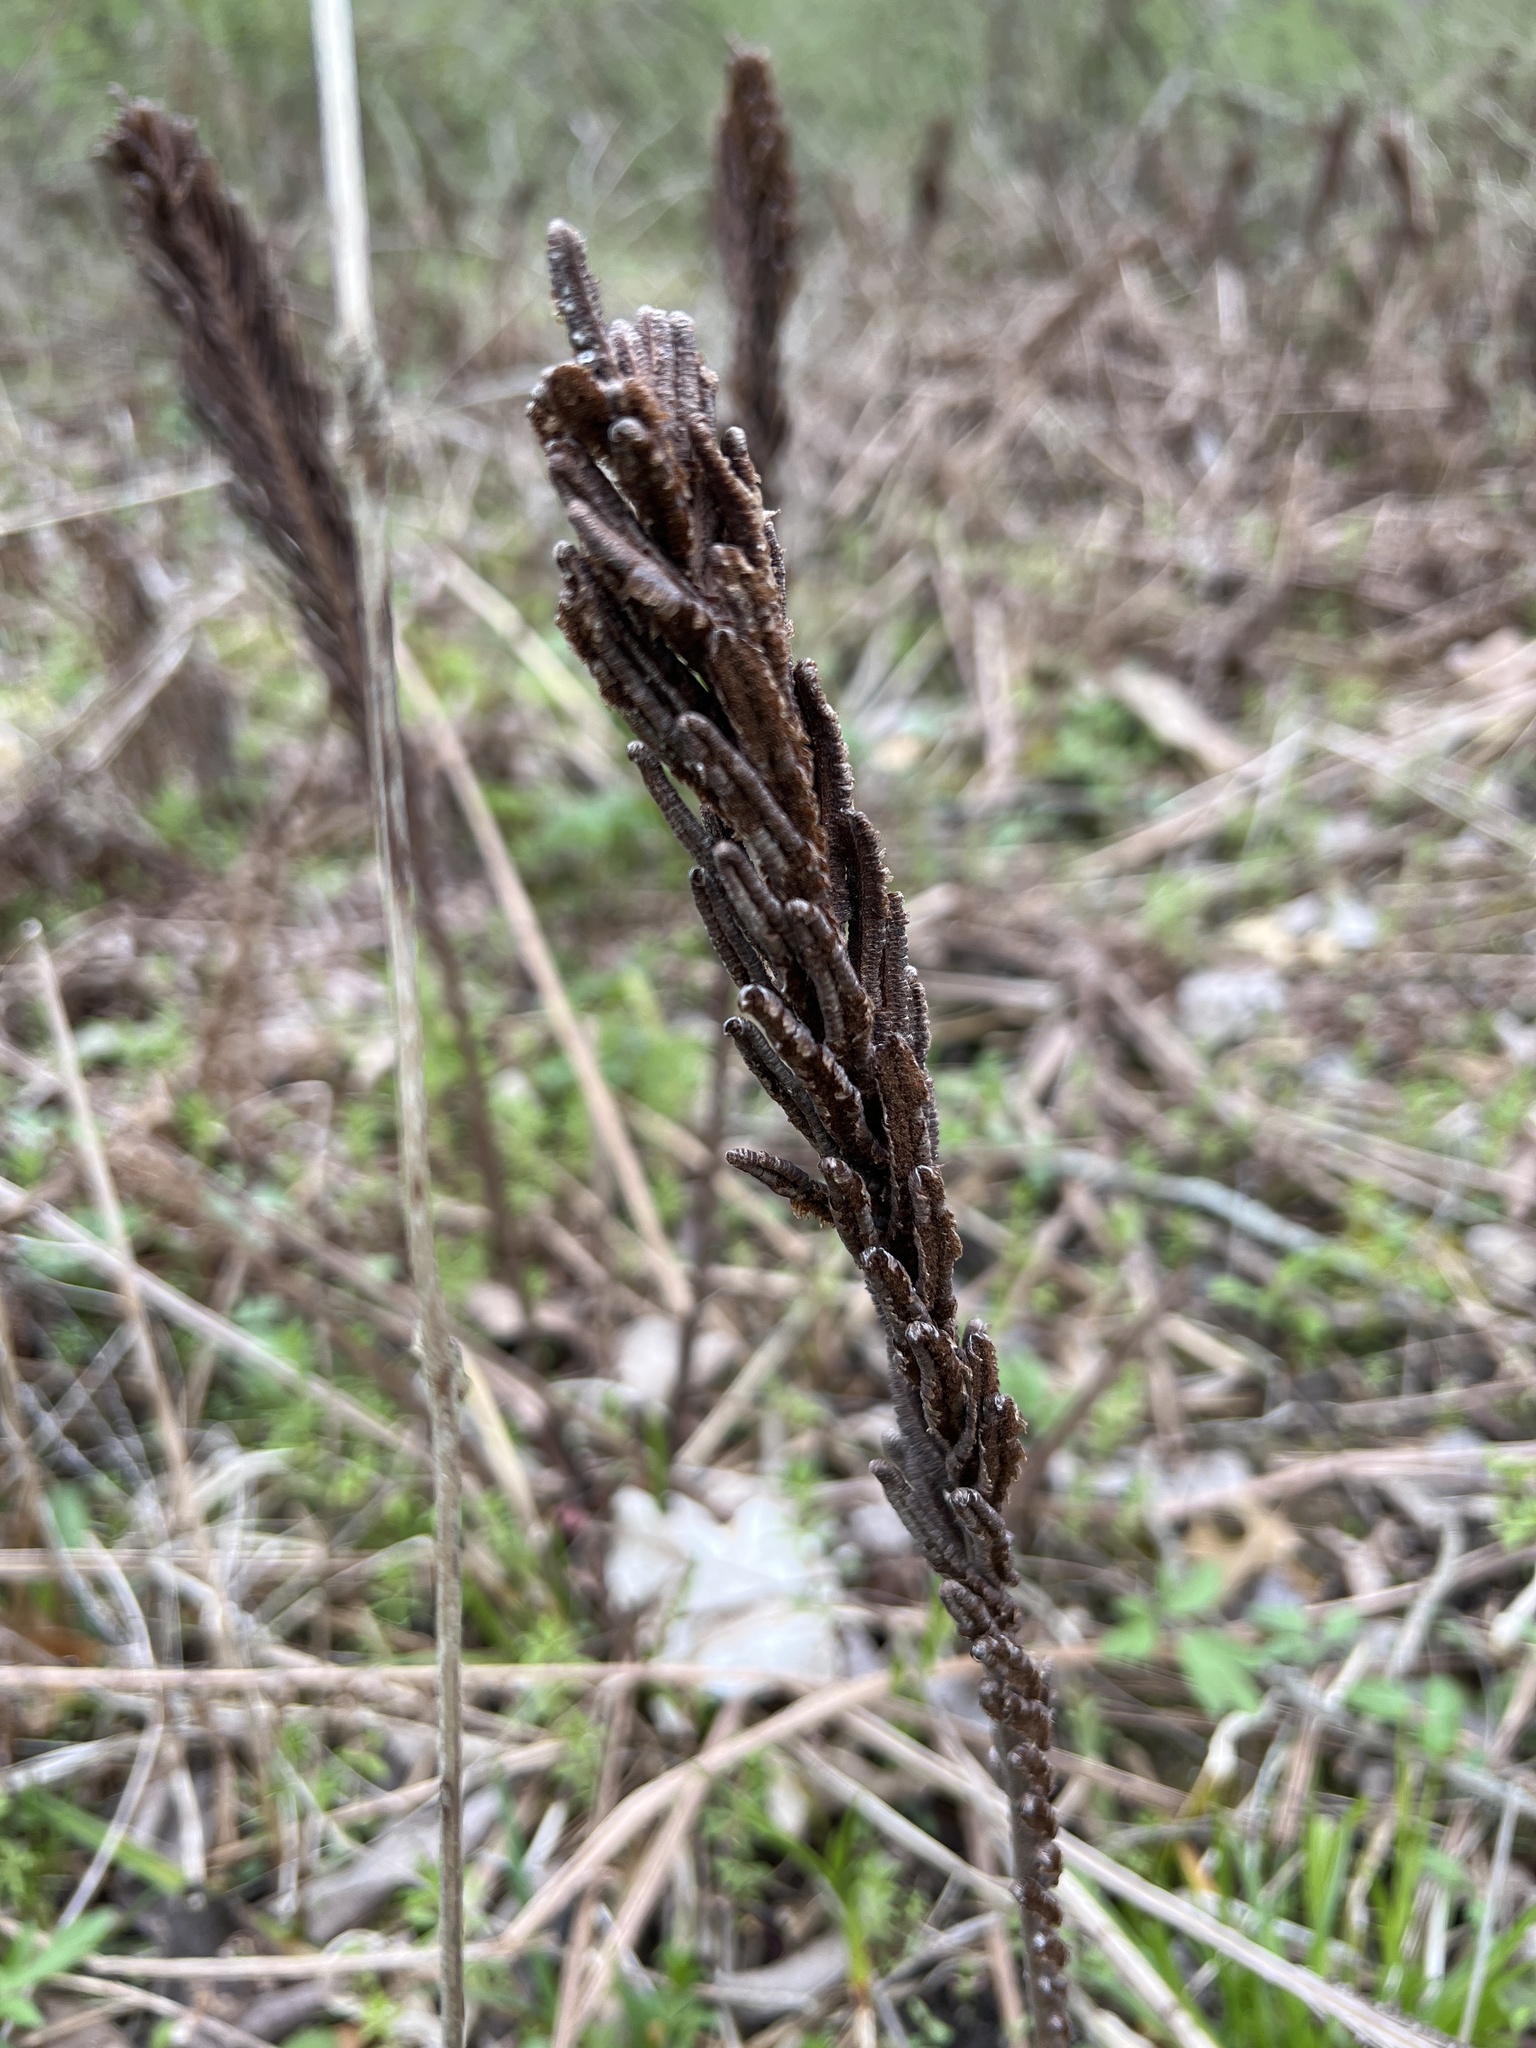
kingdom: Plantae
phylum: Tracheophyta
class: Polypodiopsida
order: Polypodiales
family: Onocleaceae
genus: Matteuccia
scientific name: Matteuccia struthiopteris
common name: Ostrich fern
